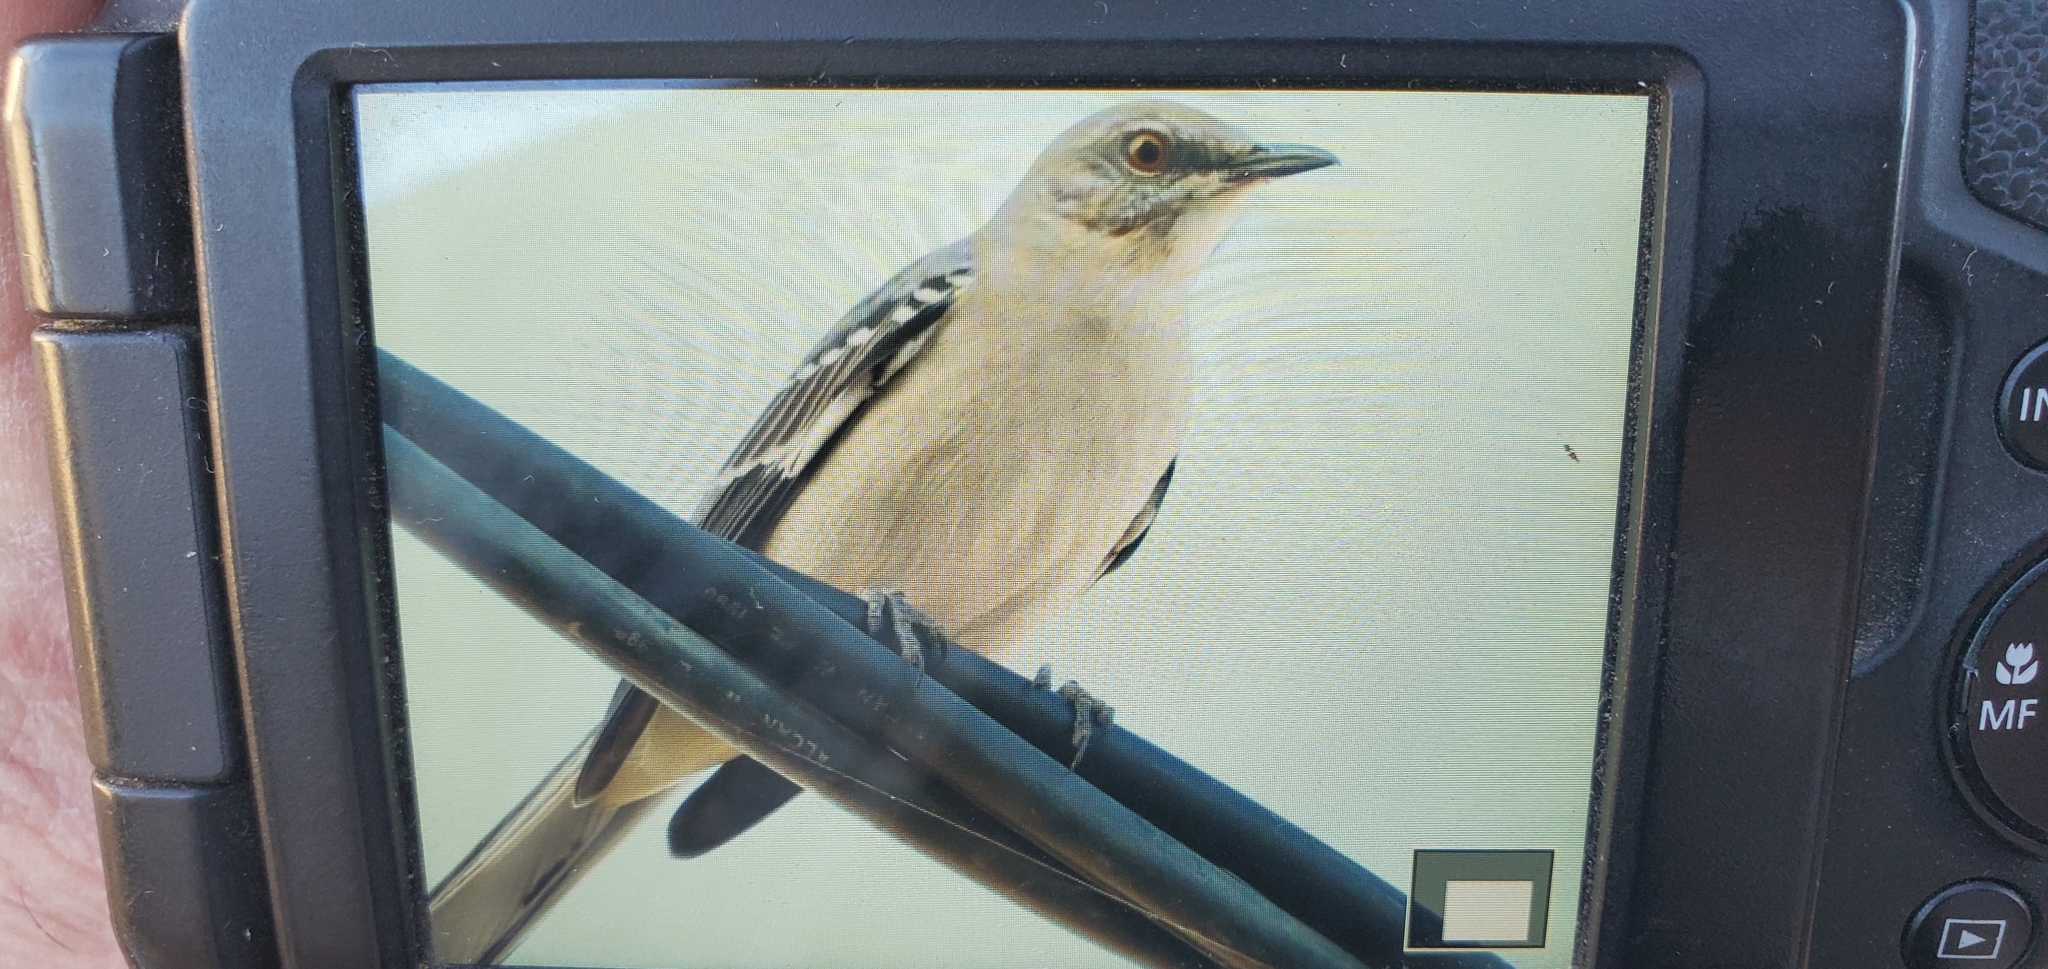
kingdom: Animalia
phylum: Chordata
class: Aves
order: Passeriformes
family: Mimidae
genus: Mimus
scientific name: Mimus polyglottos
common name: Northern mockingbird
